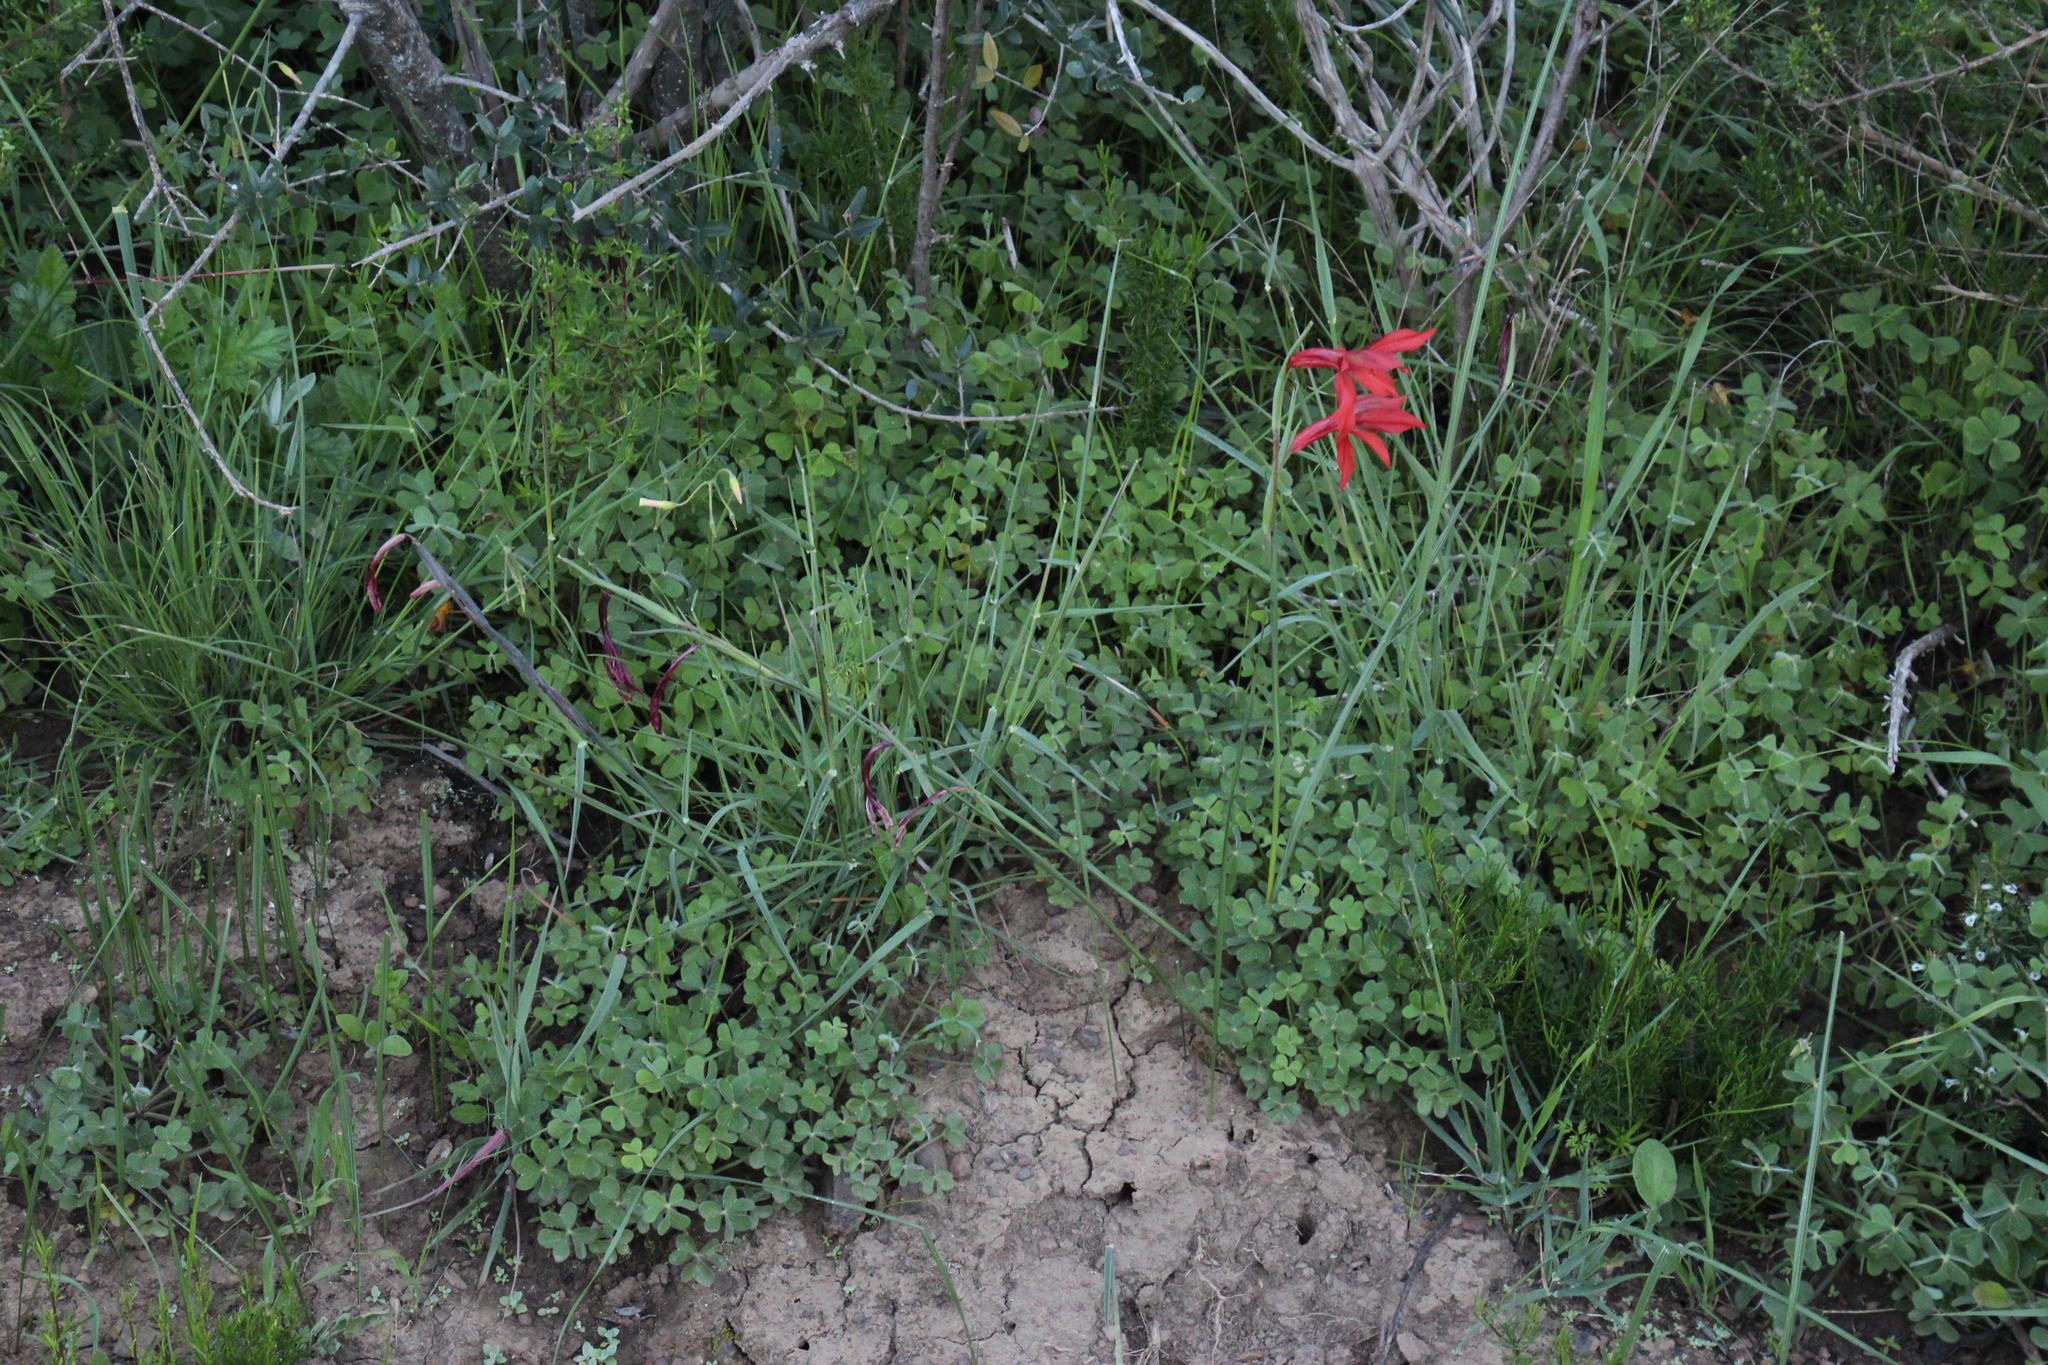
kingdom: Plantae
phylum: Tracheophyta
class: Liliopsida
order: Asparagales
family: Iridaceae
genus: Gladiolus
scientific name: Gladiolus watsonius
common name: Red afrikaner
